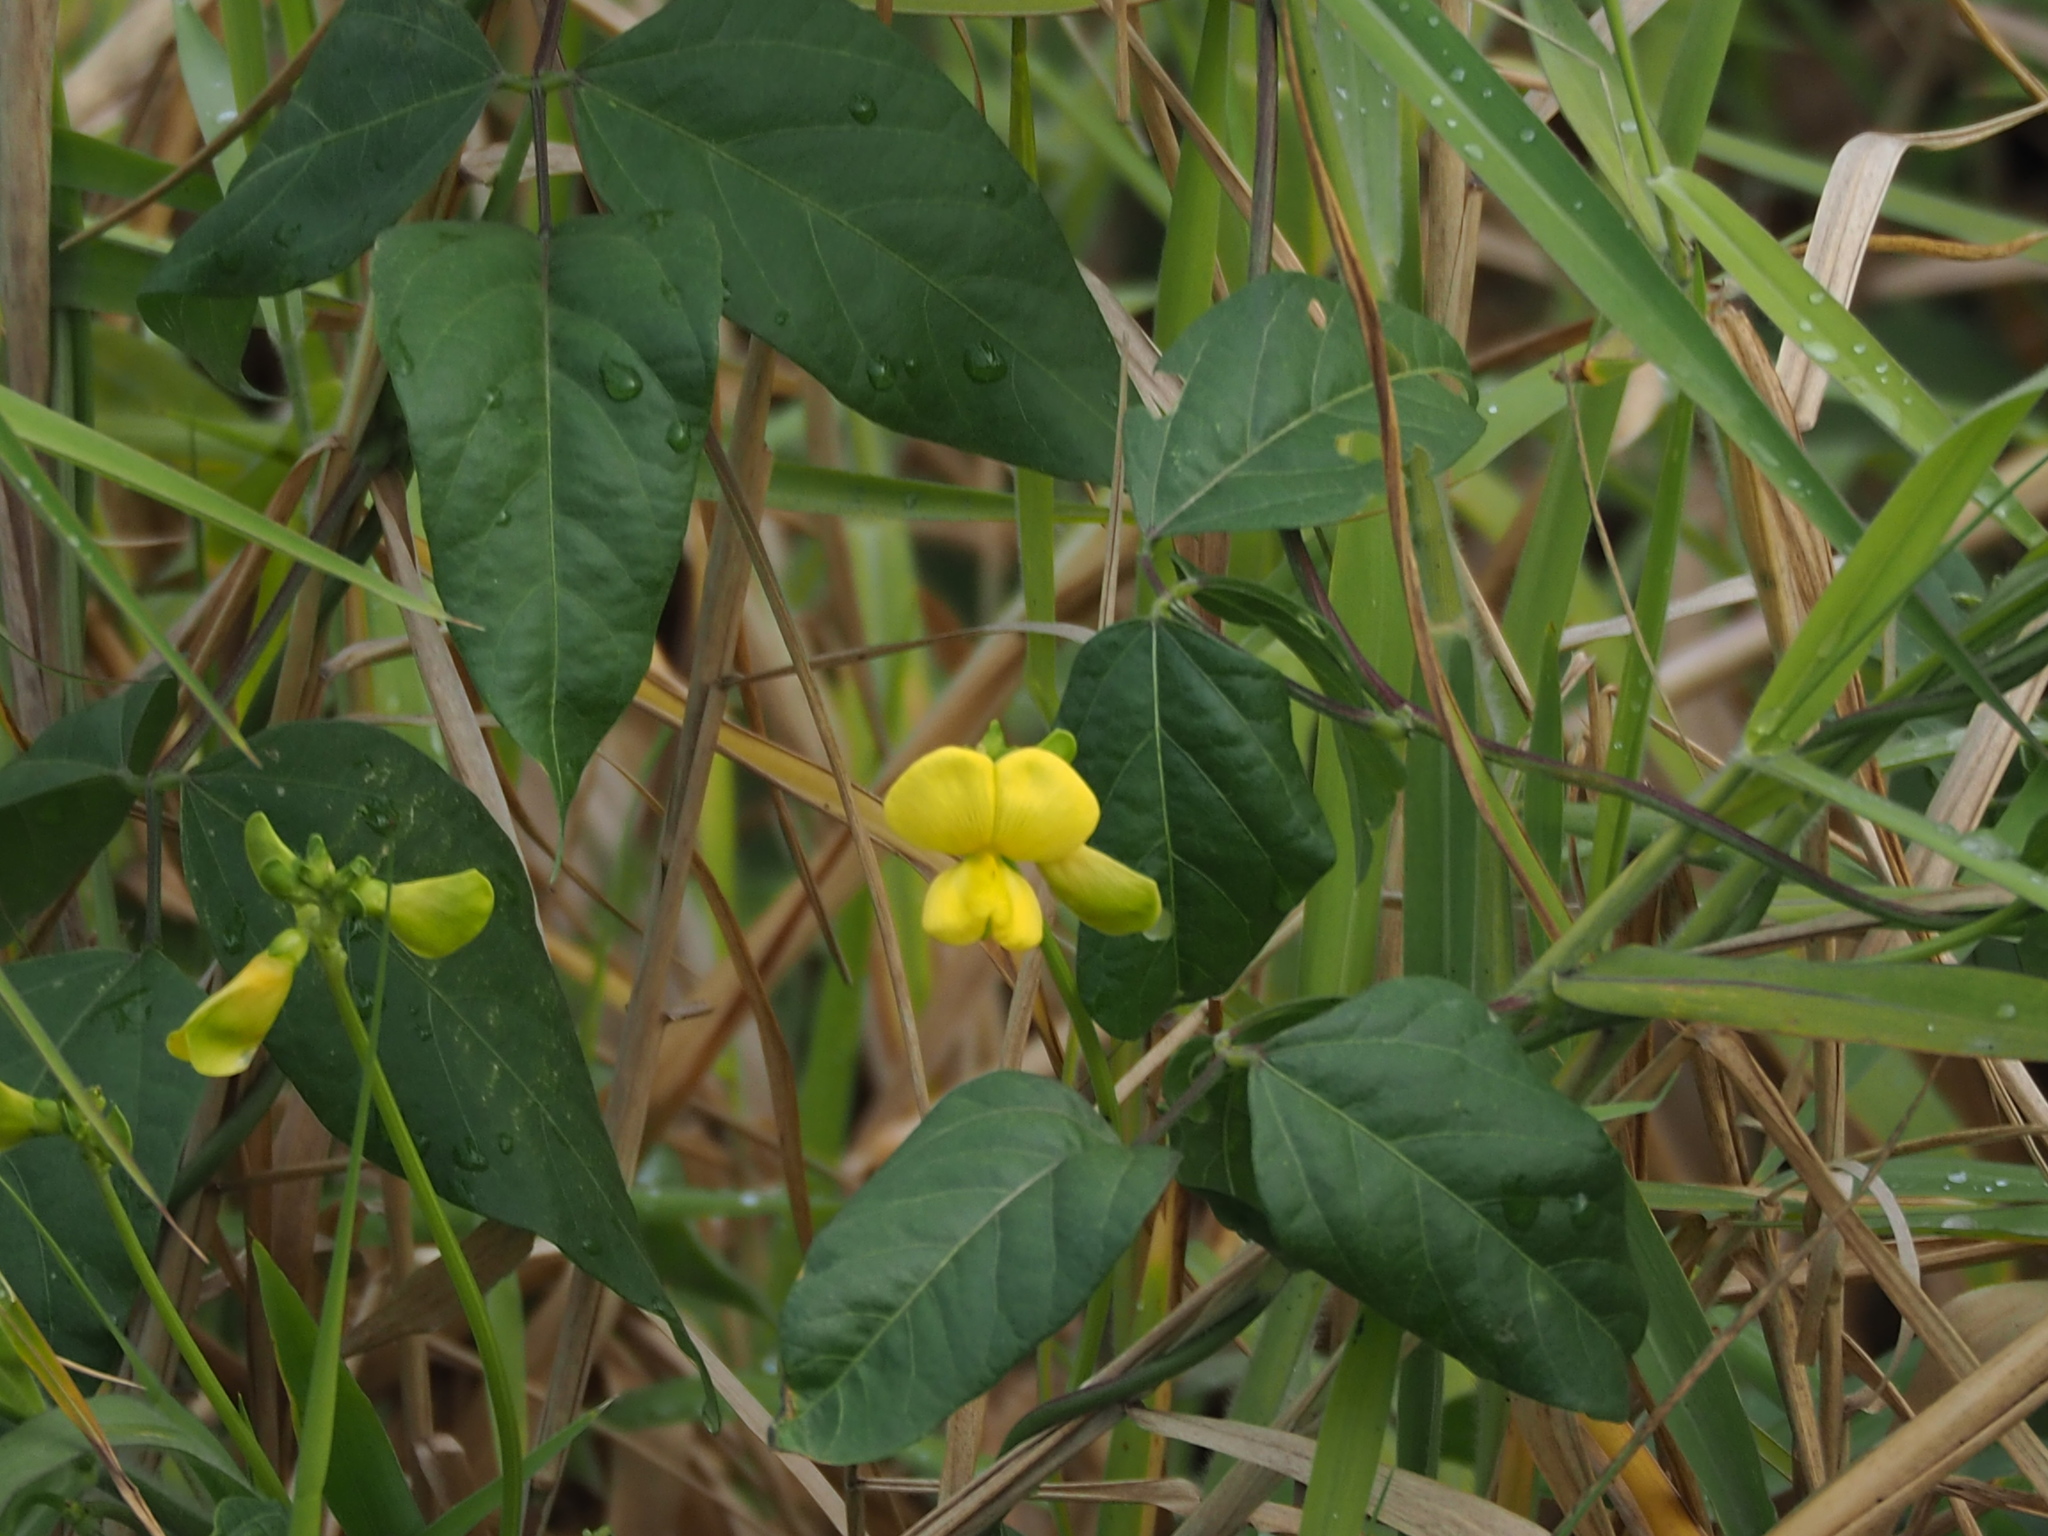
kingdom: Plantae
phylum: Tracheophyta
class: Magnoliopsida
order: Fabales
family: Fabaceae
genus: Vigna
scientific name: Vigna luteola
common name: Hairypod cowpea
